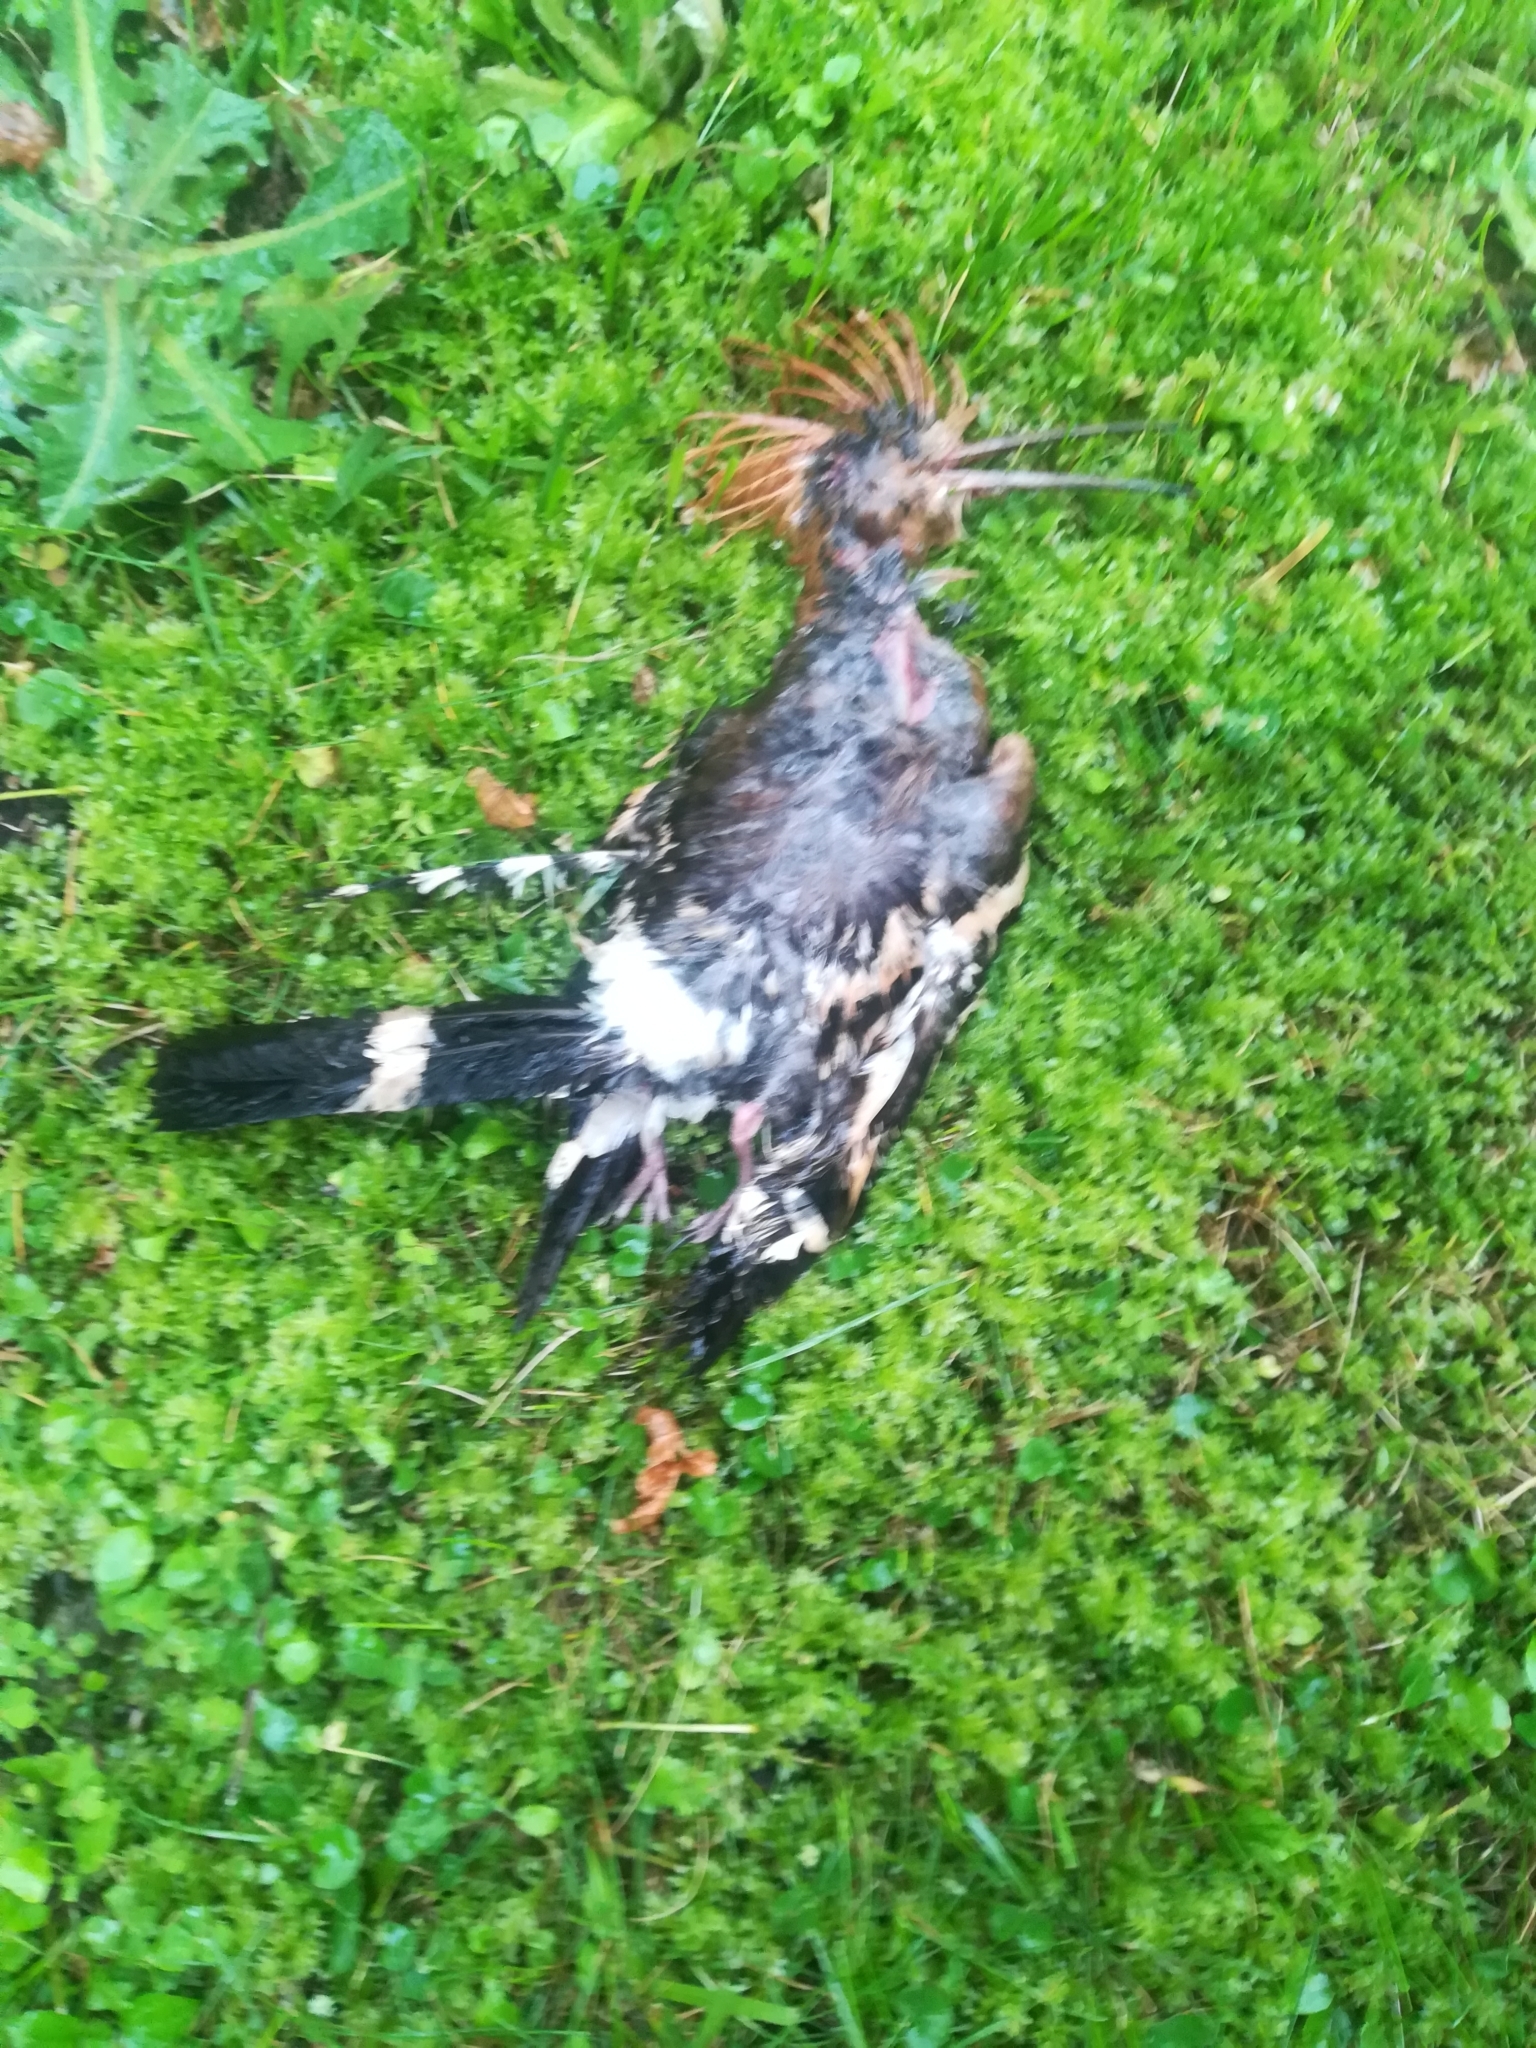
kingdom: Animalia
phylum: Chordata
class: Aves
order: Bucerotiformes
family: Upupidae
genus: Upupa
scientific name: Upupa epops
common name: Eurasian hoopoe
